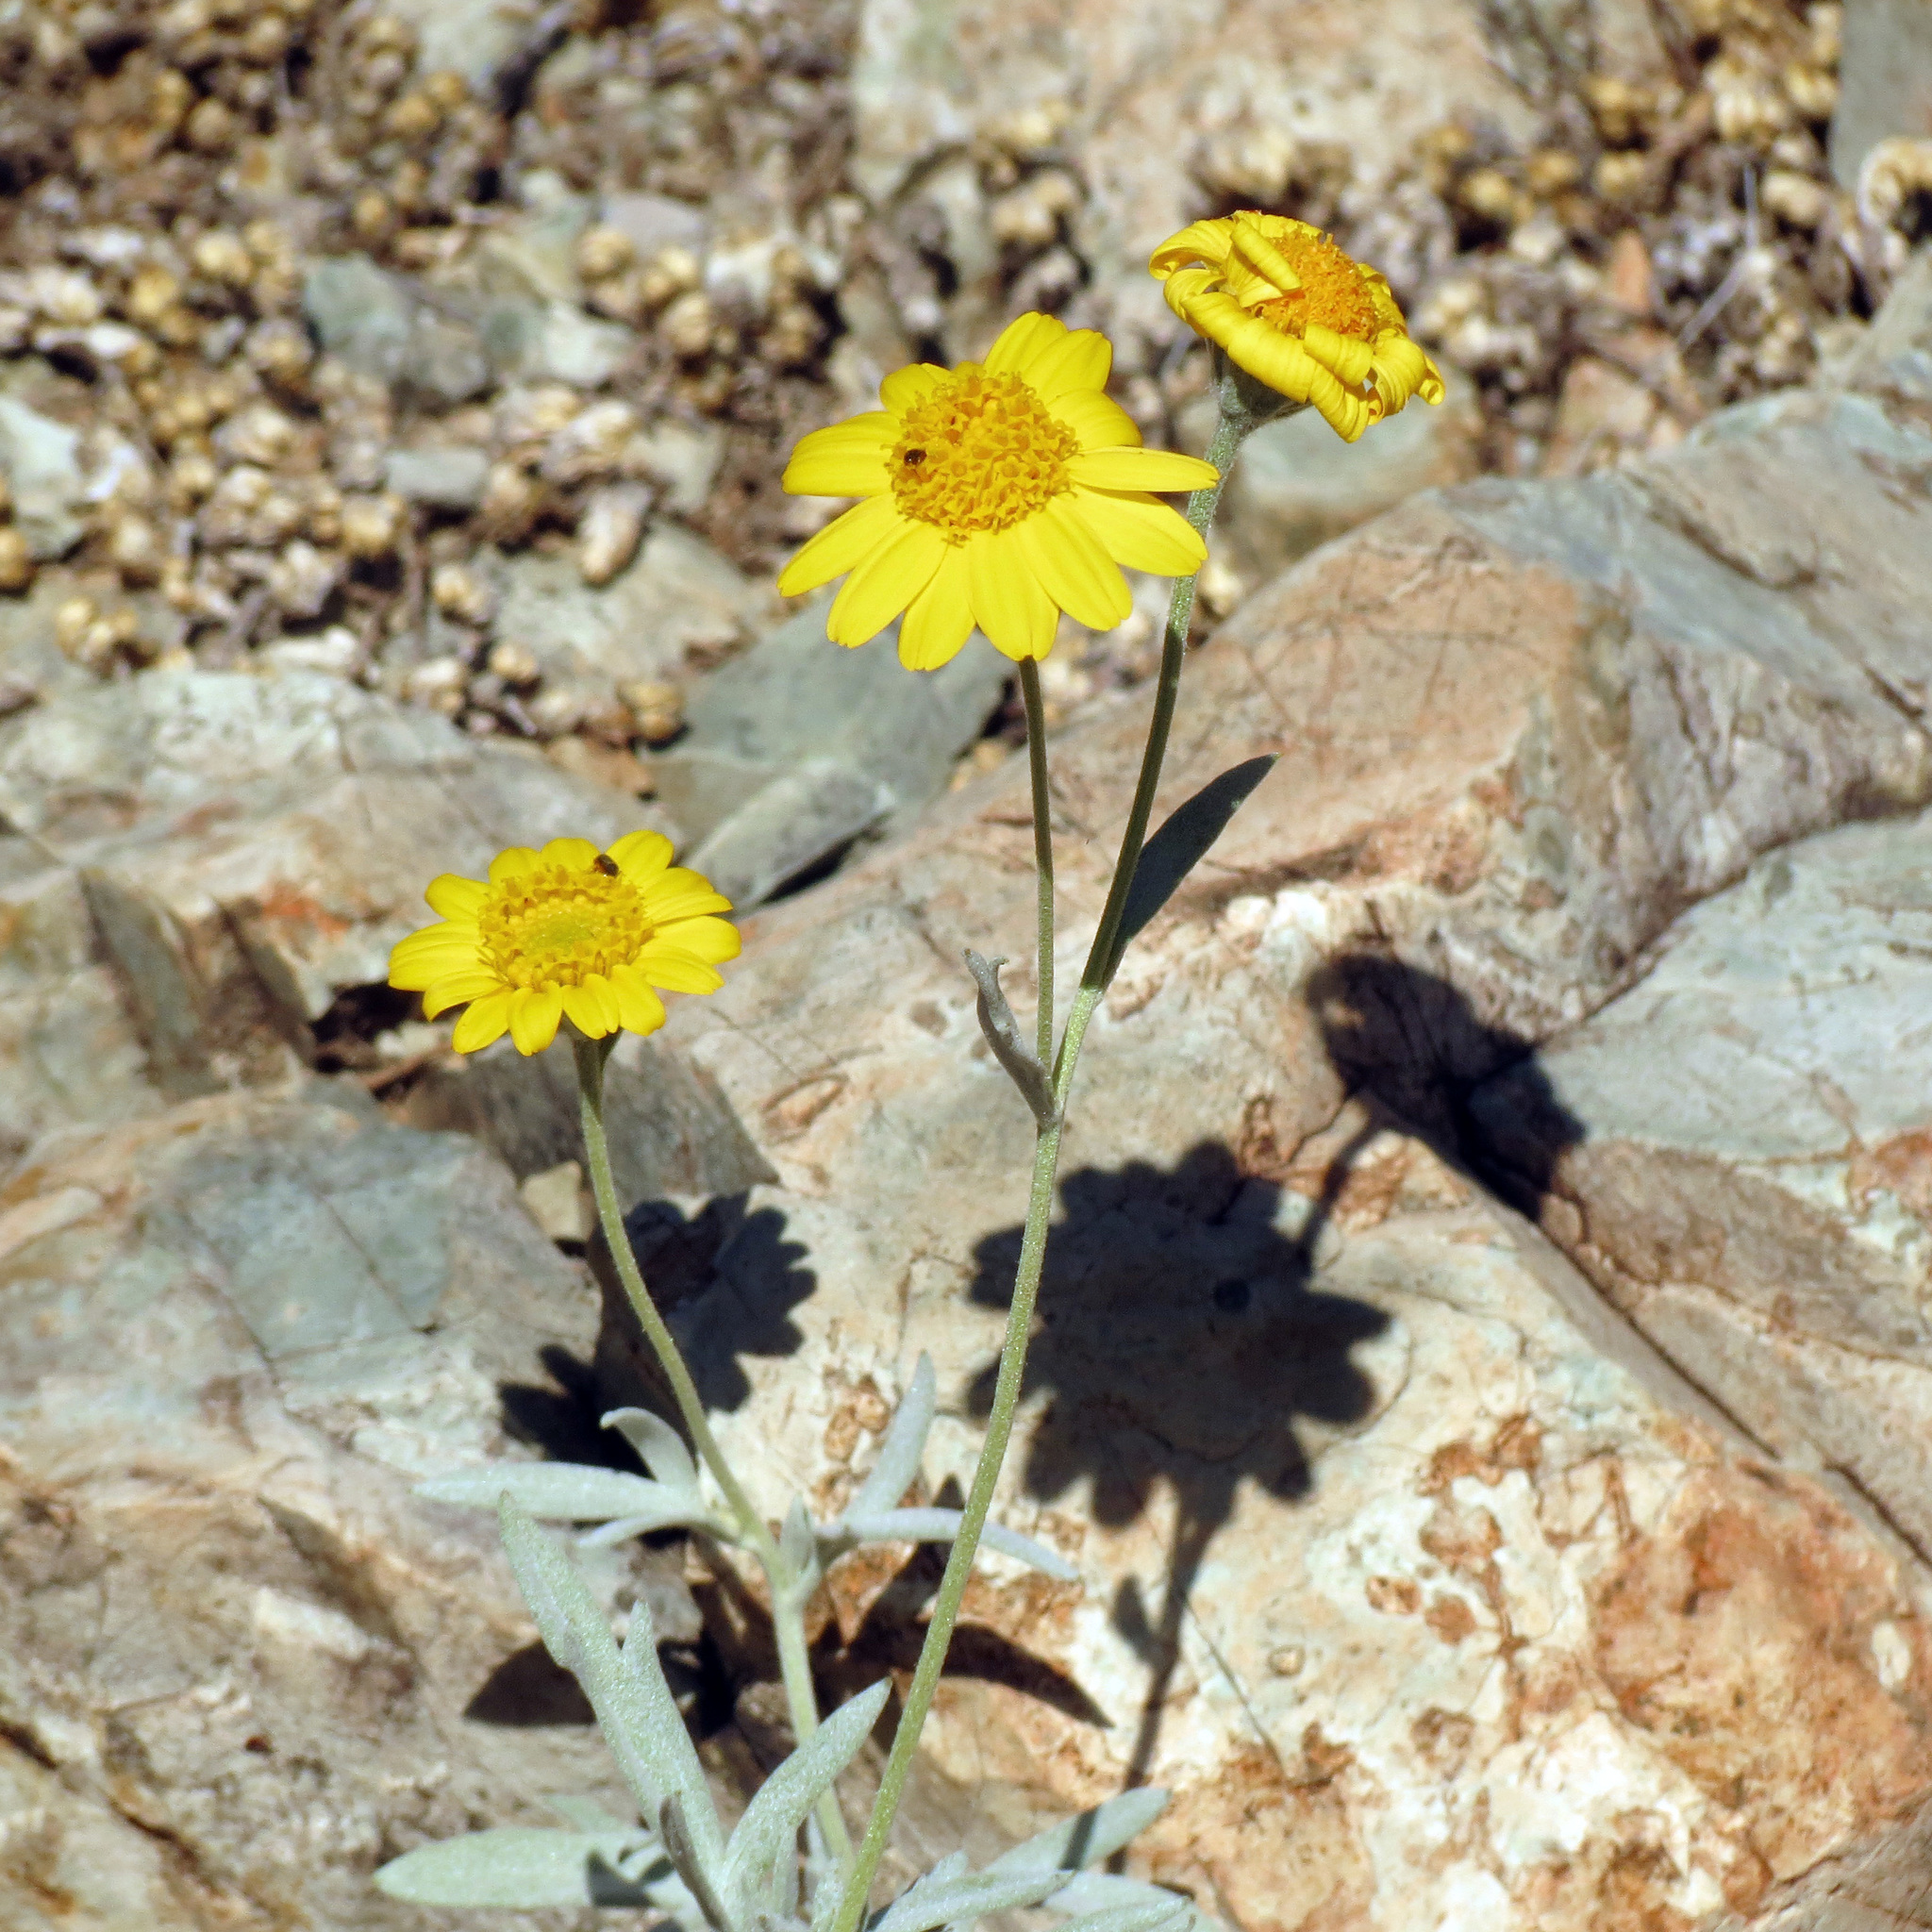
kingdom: Plantae
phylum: Tracheophyta
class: Magnoliopsida
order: Asterales
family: Asteraceae
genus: Picradeniopsis
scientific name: Picradeniopsis absinthifolia
